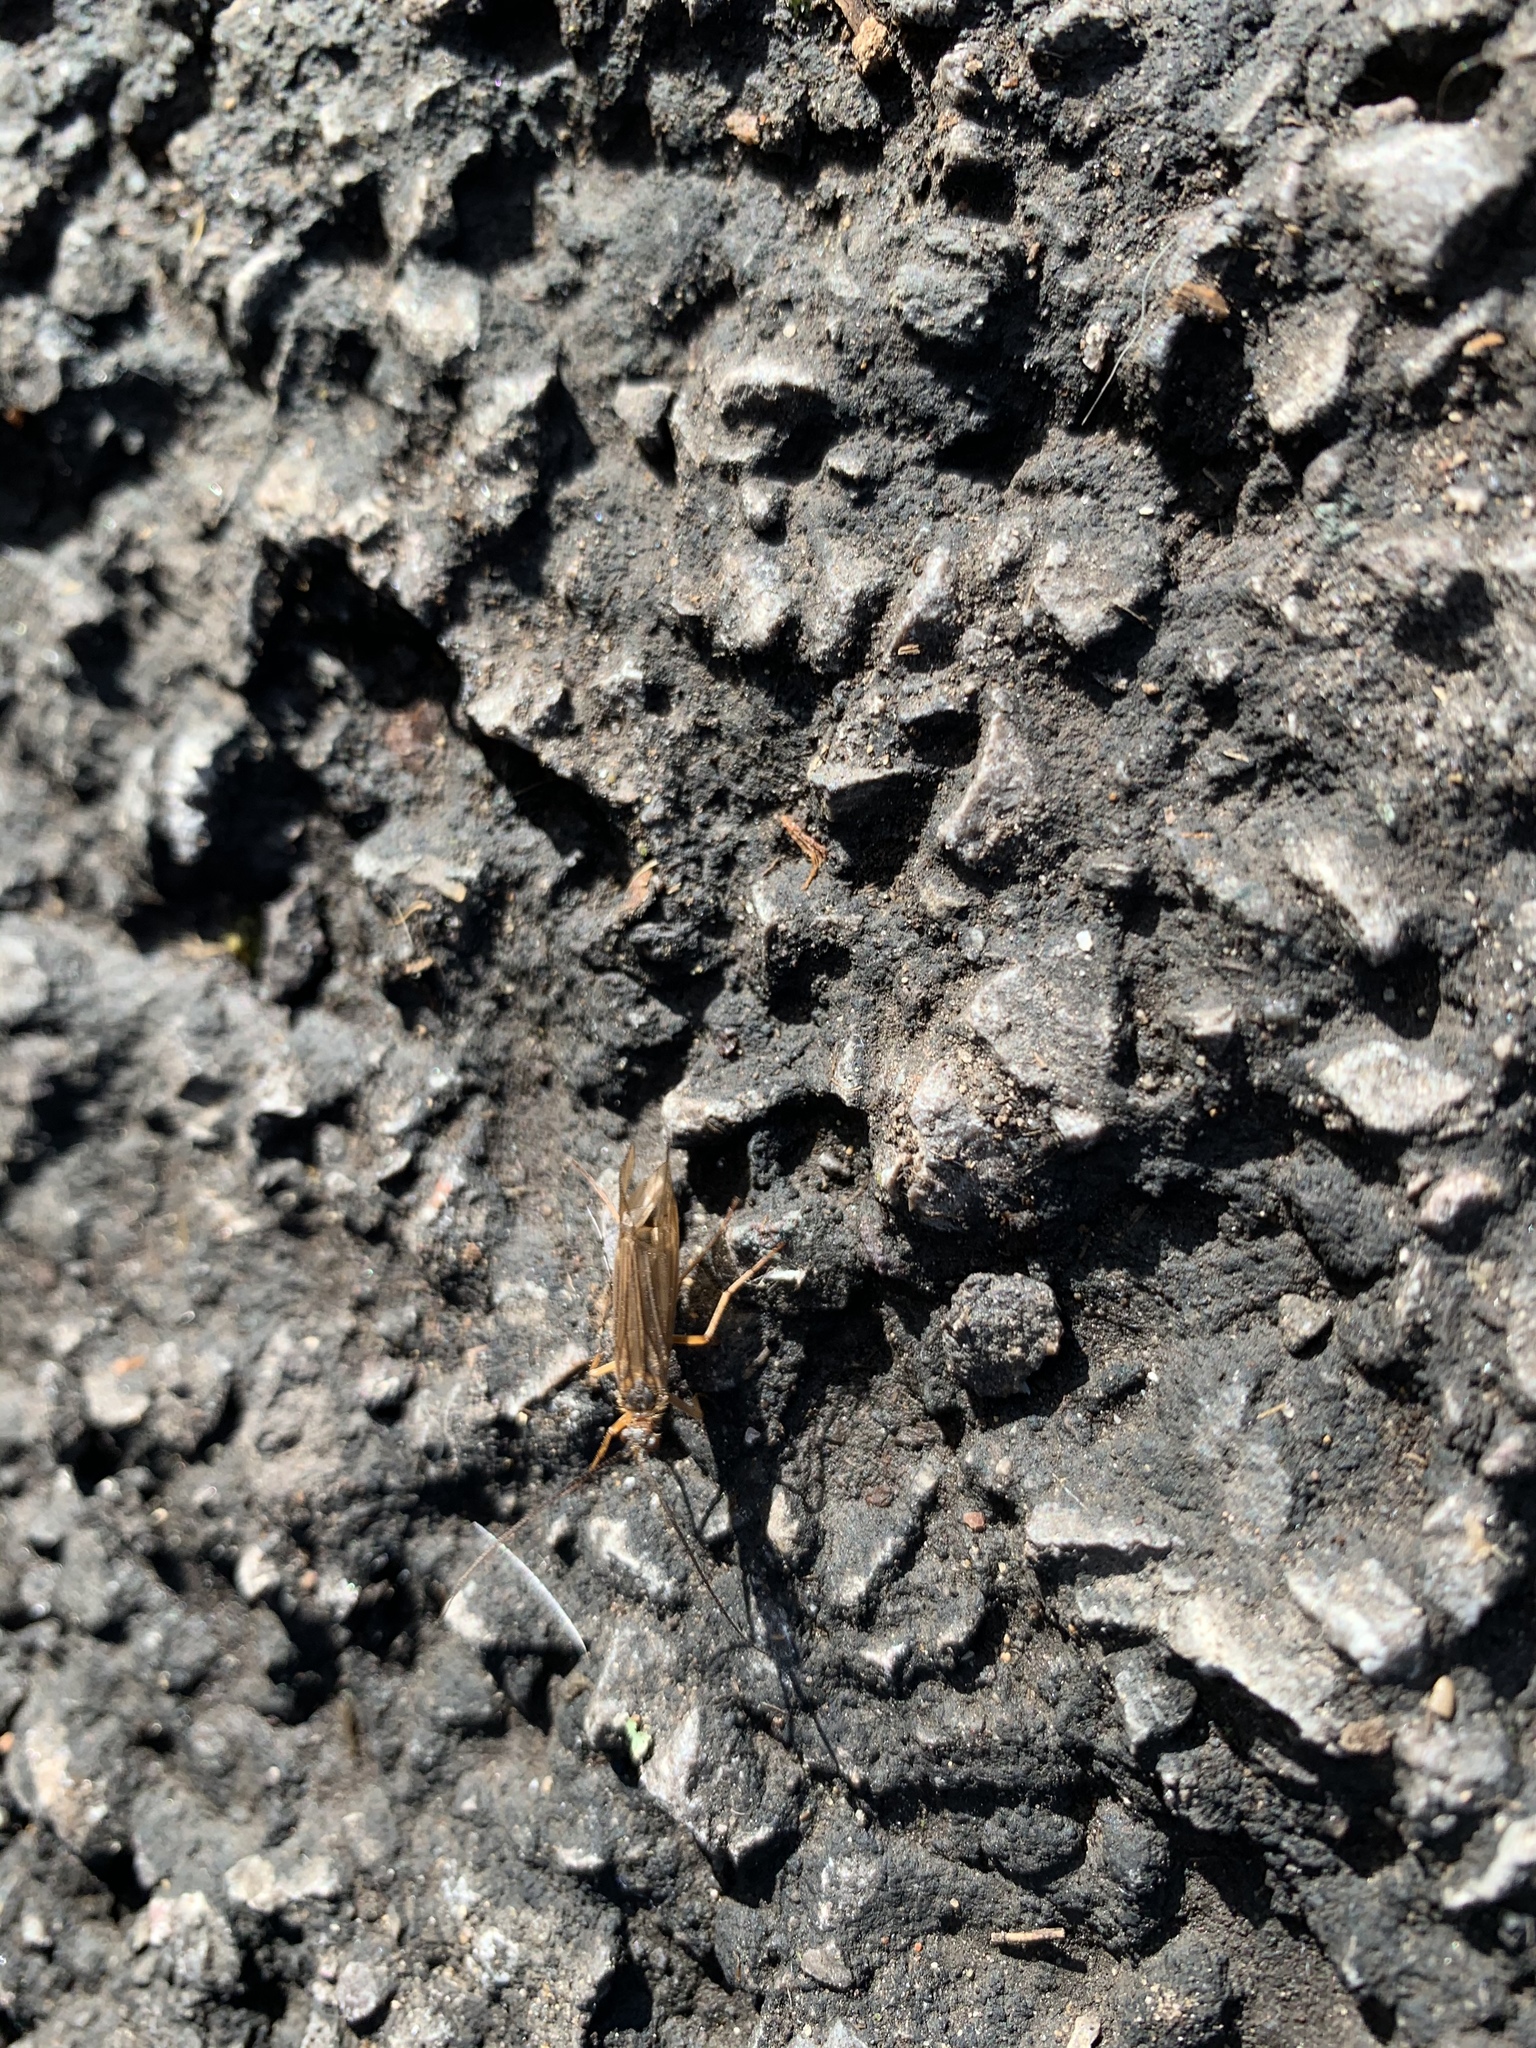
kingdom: Animalia
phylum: Arthropoda
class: Insecta
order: Trichoptera
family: Limnephilidae
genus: Enoicyla
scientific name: Enoicyla pusilla
